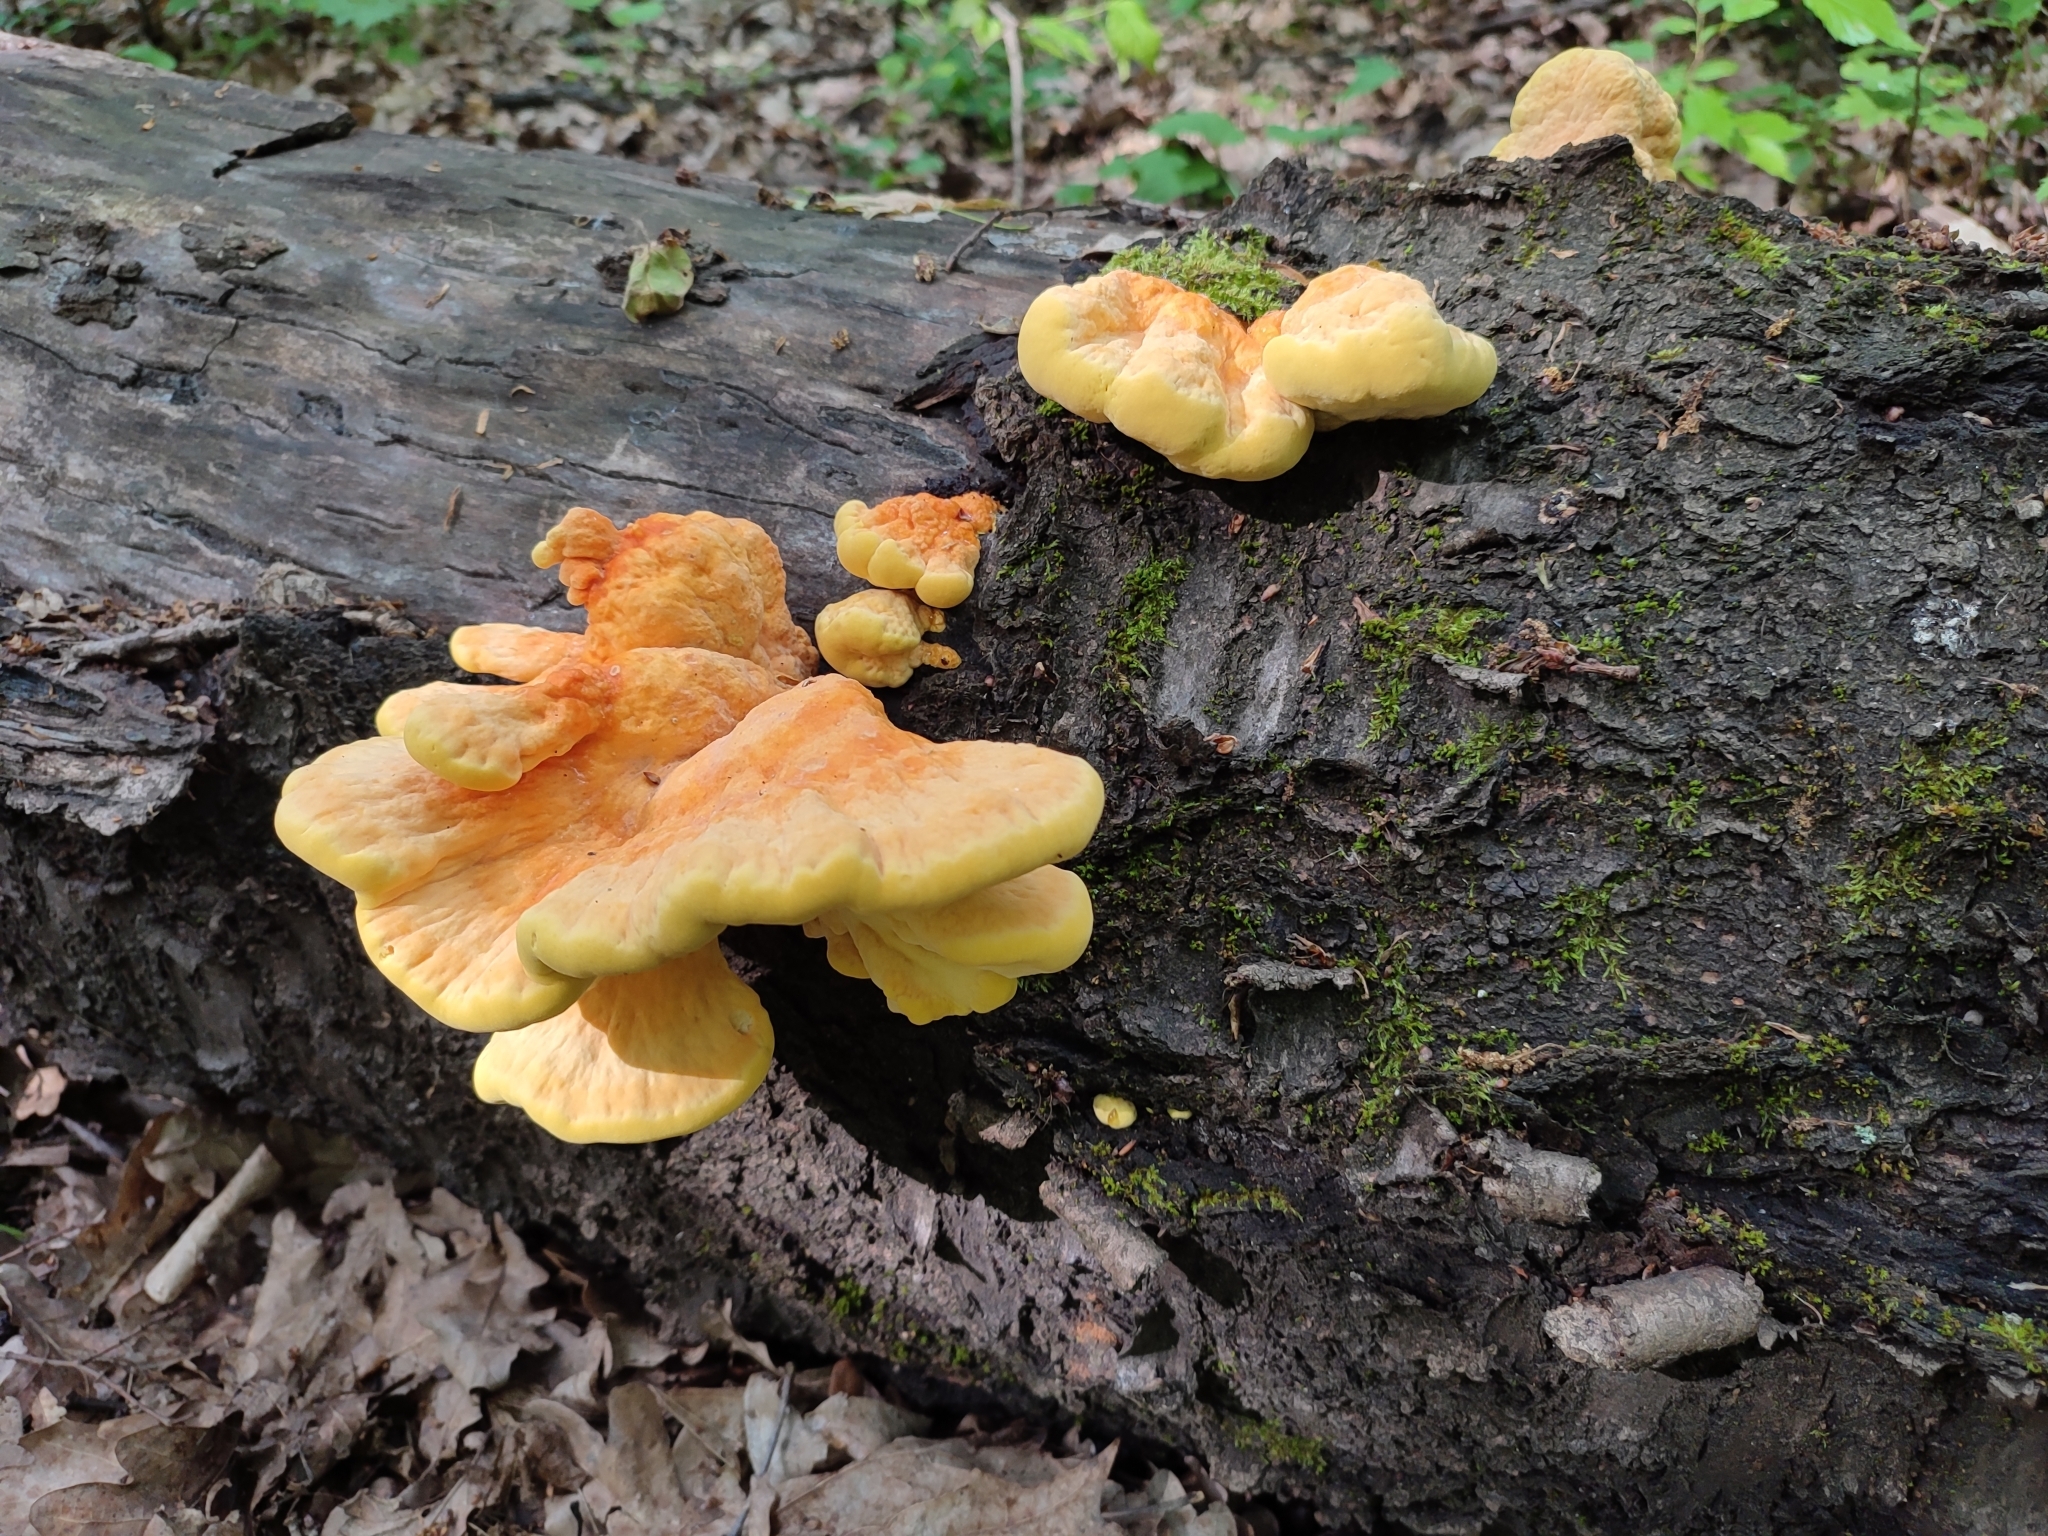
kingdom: Fungi
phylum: Basidiomycota
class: Agaricomycetes
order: Polyporales
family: Laetiporaceae
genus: Laetiporus
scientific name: Laetiporus sulphureus
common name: Chicken of the woods
